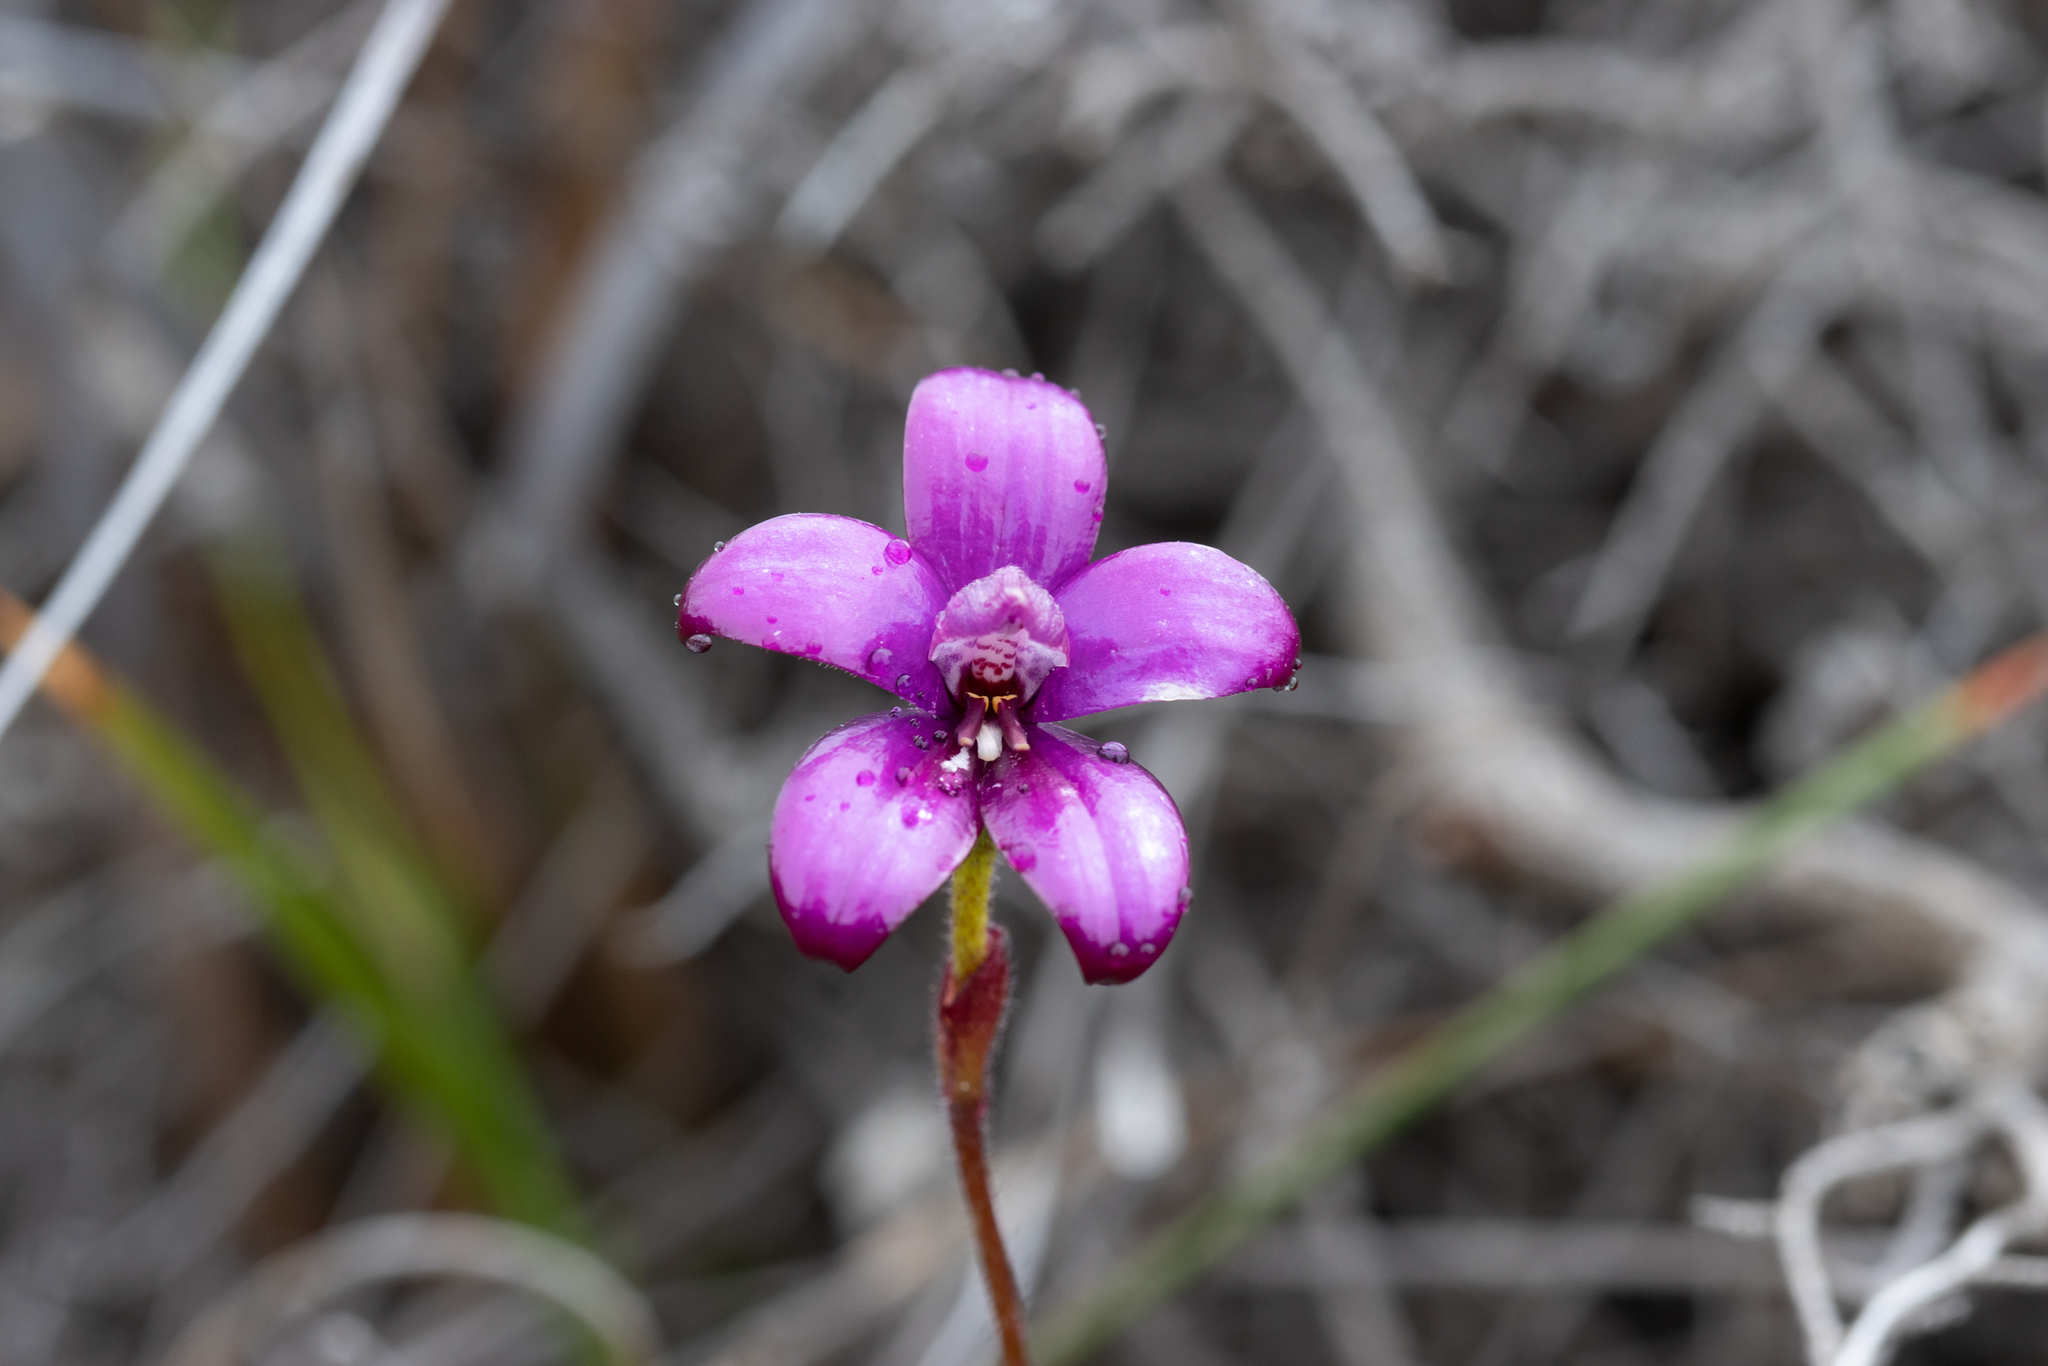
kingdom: Plantae
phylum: Tracheophyta
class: Liliopsida
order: Asparagales
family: Orchidaceae
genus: Caladenia
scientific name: Caladenia brunonis
